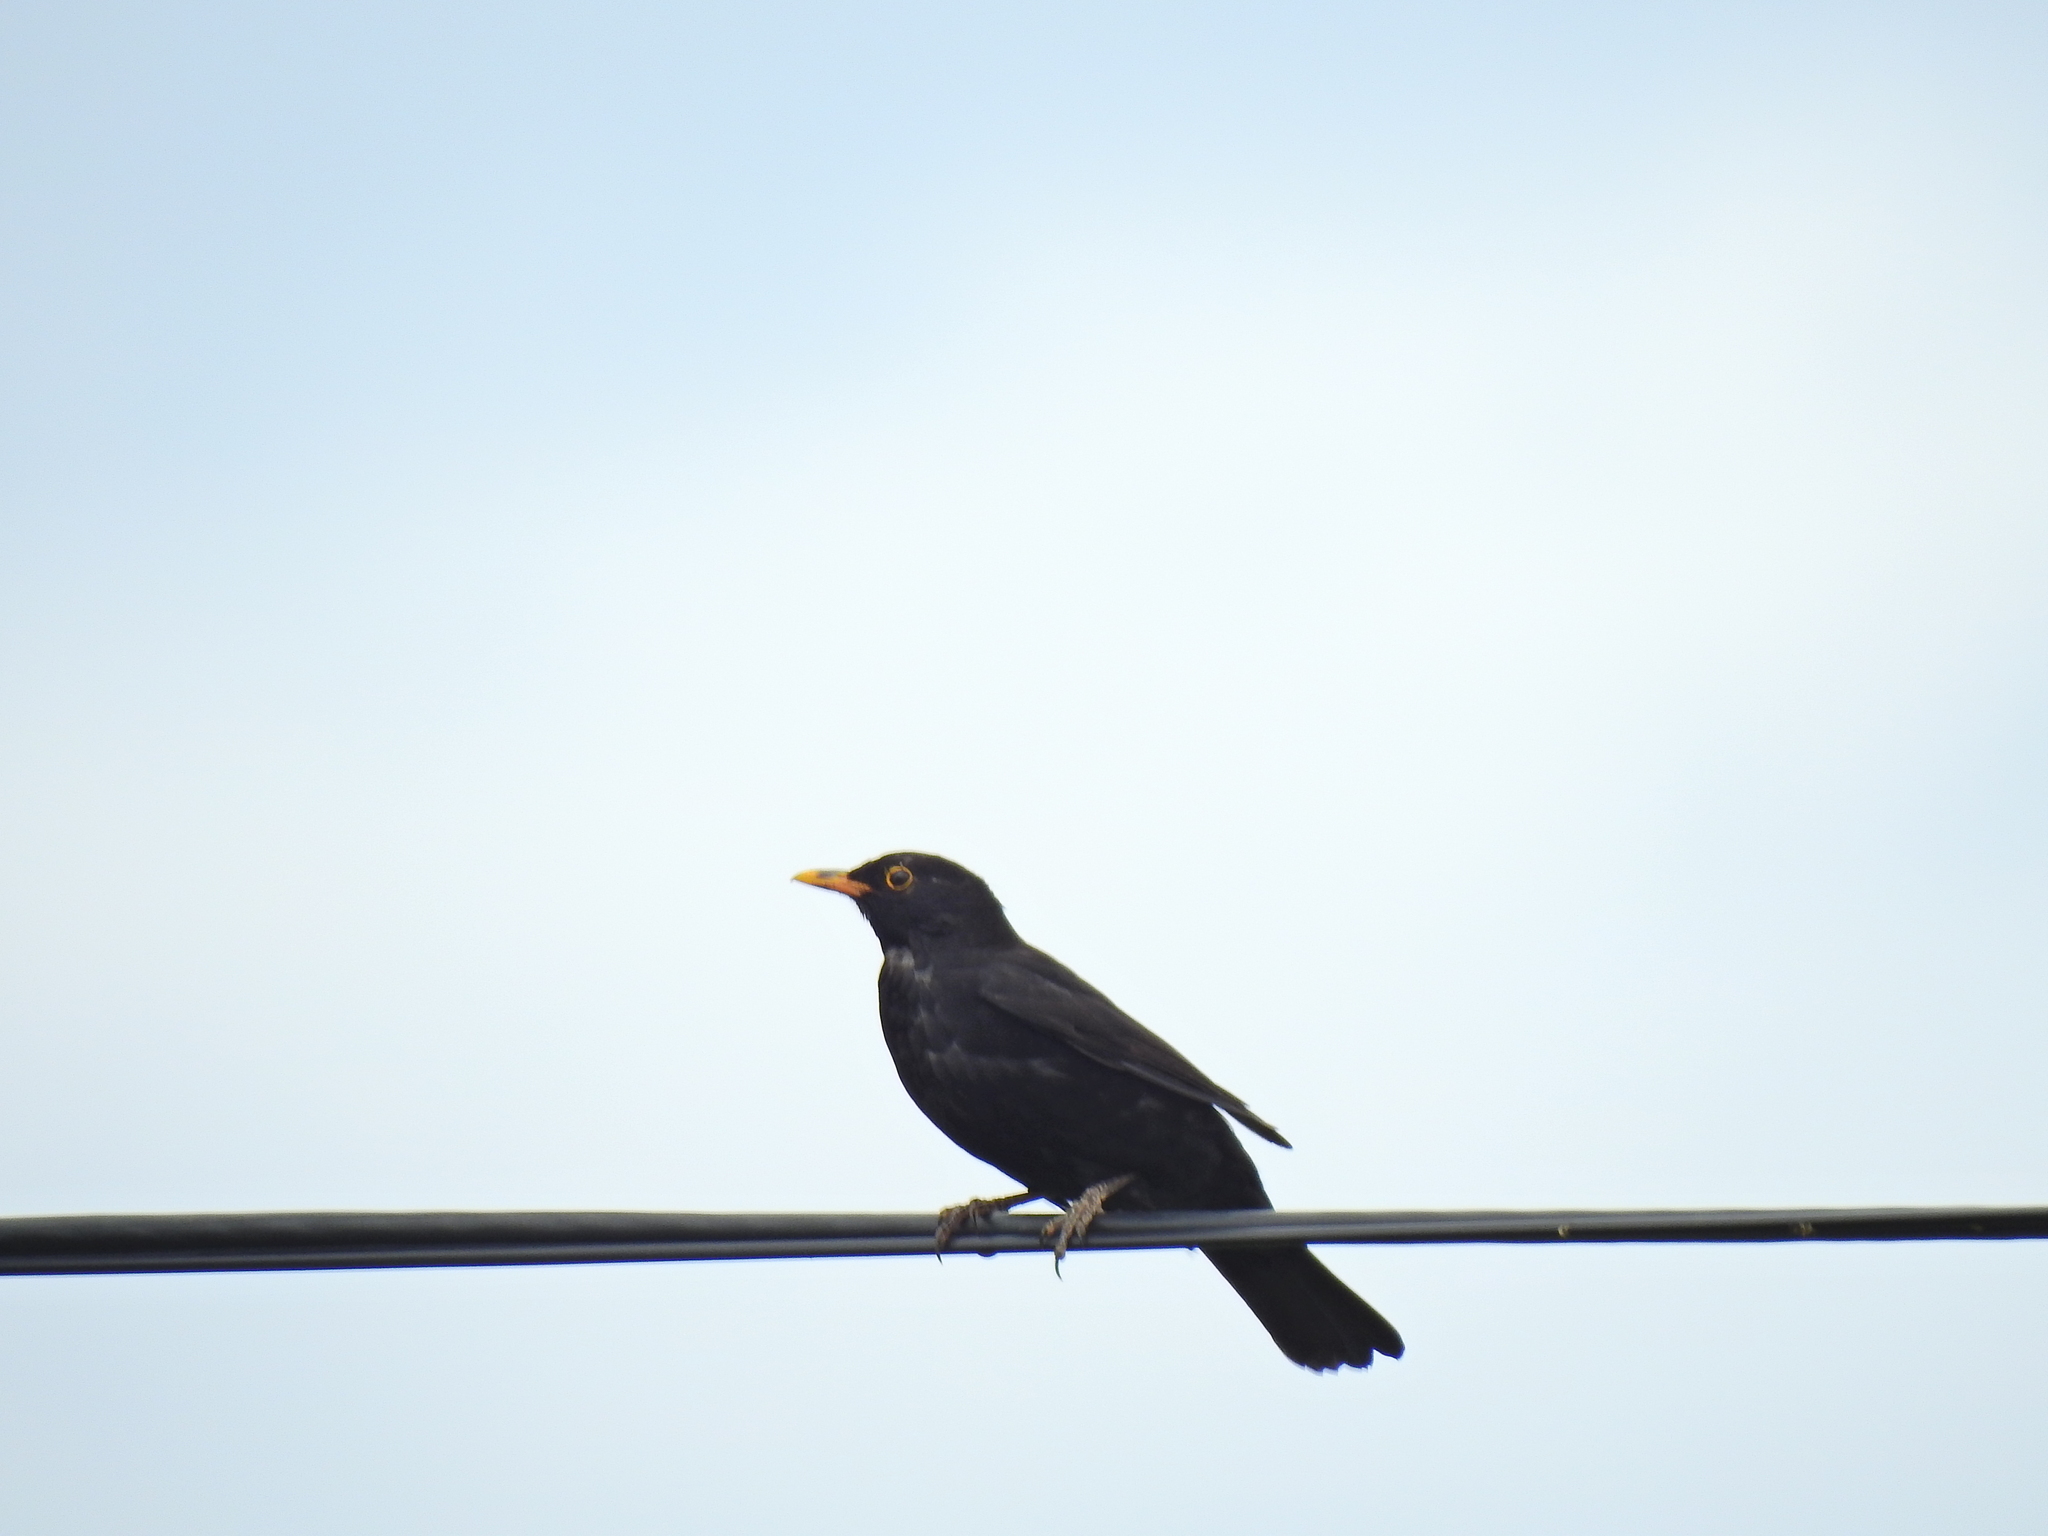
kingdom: Animalia
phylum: Chordata
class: Aves
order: Passeriformes
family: Turdidae
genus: Turdus
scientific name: Turdus merula
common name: Common blackbird
